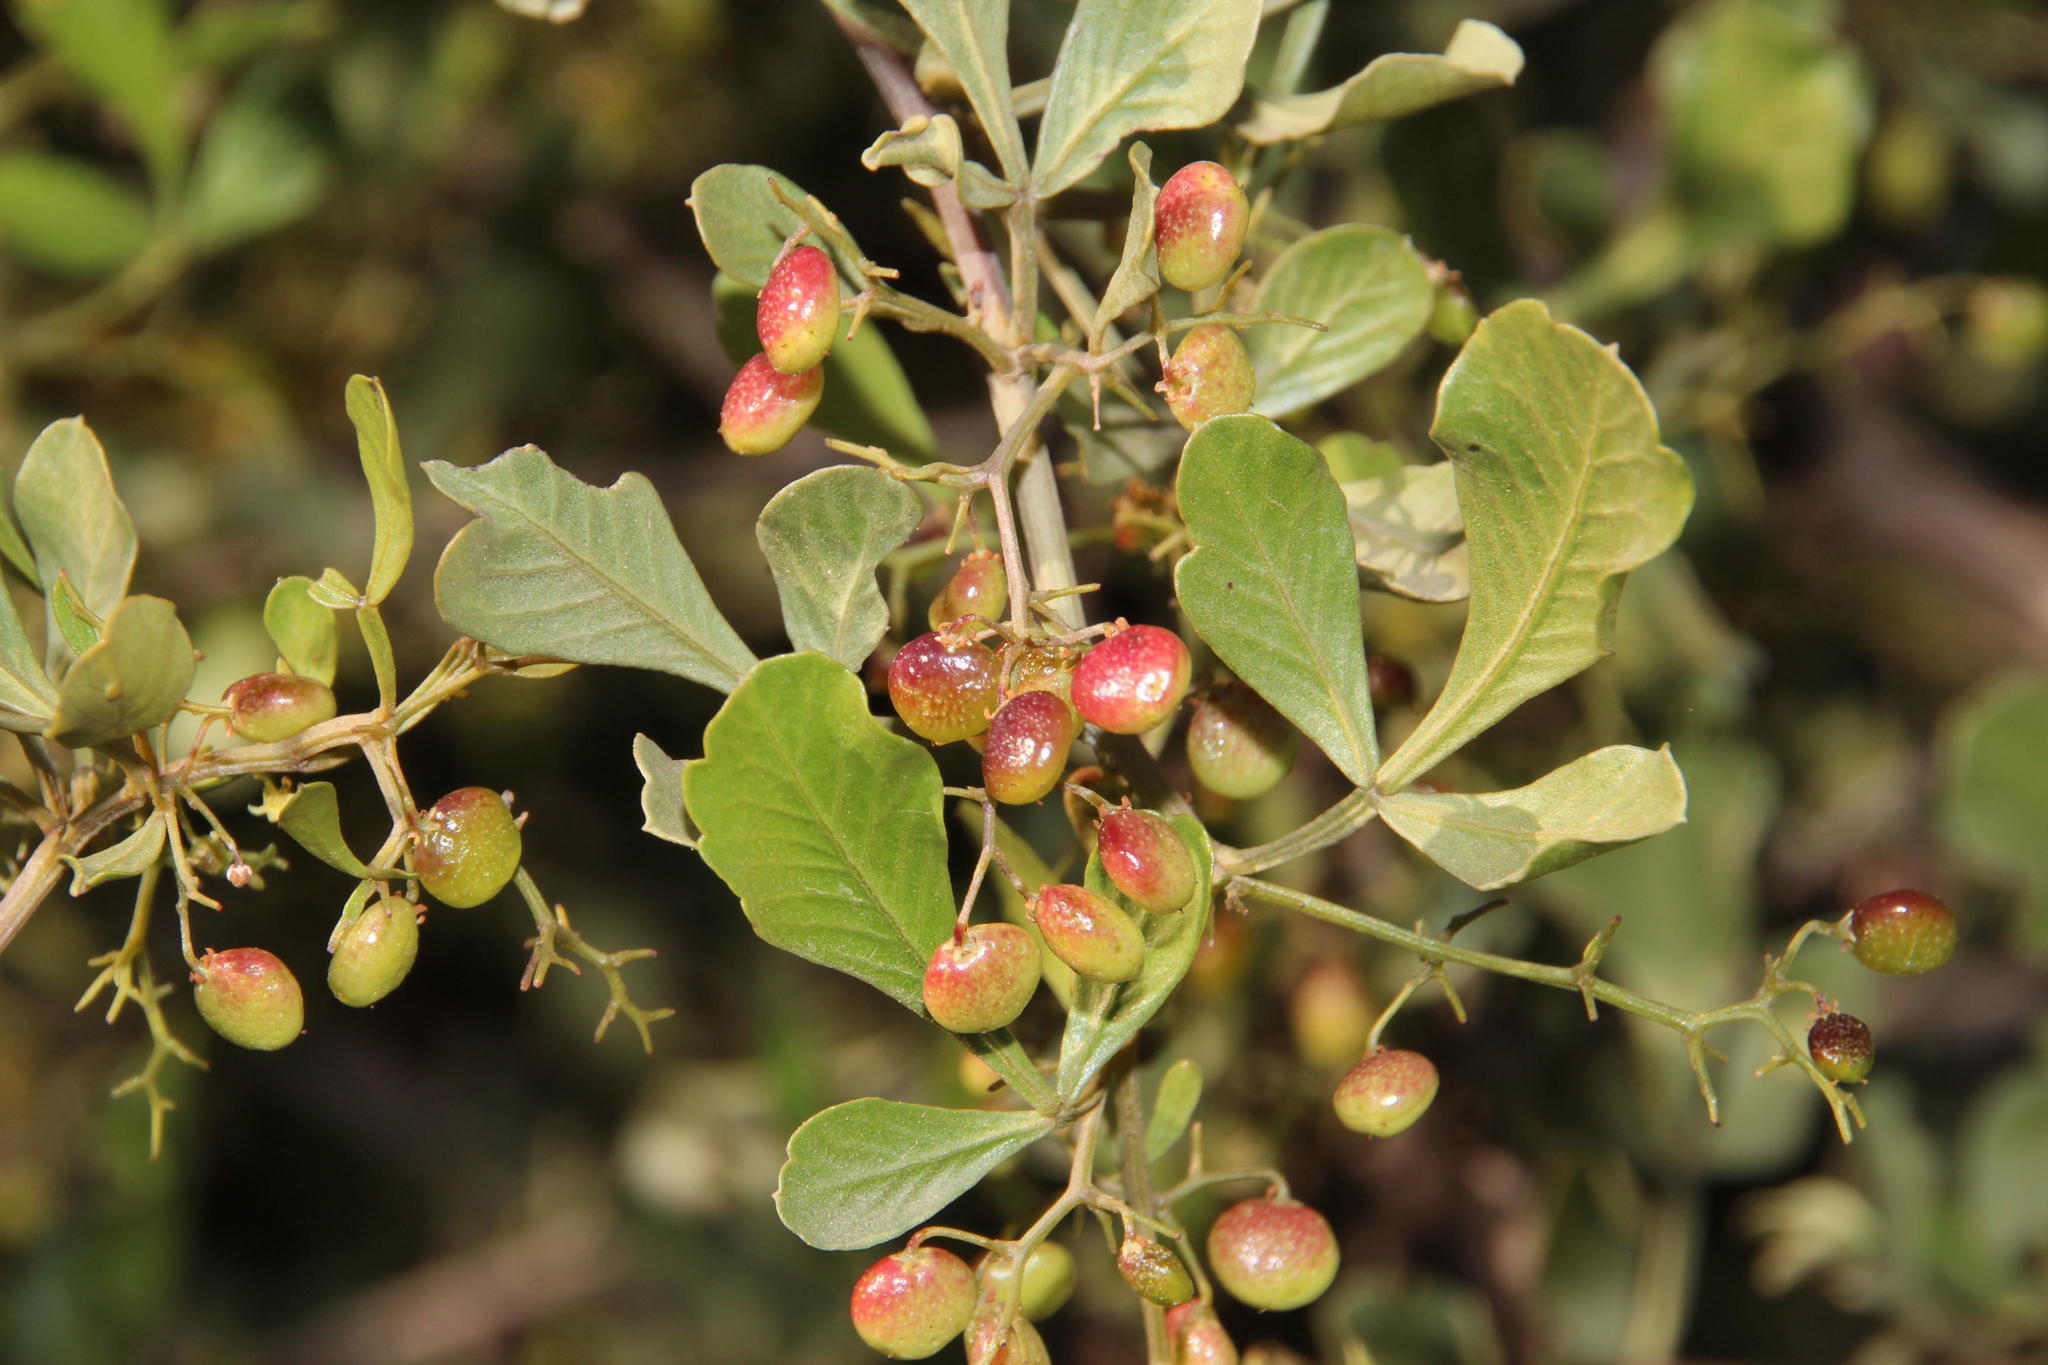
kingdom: Plantae
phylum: Tracheophyta
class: Magnoliopsida
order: Sapindales
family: Anacardiaceae
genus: Searsia
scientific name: Searsia undulata
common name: Namaqua kunibush
